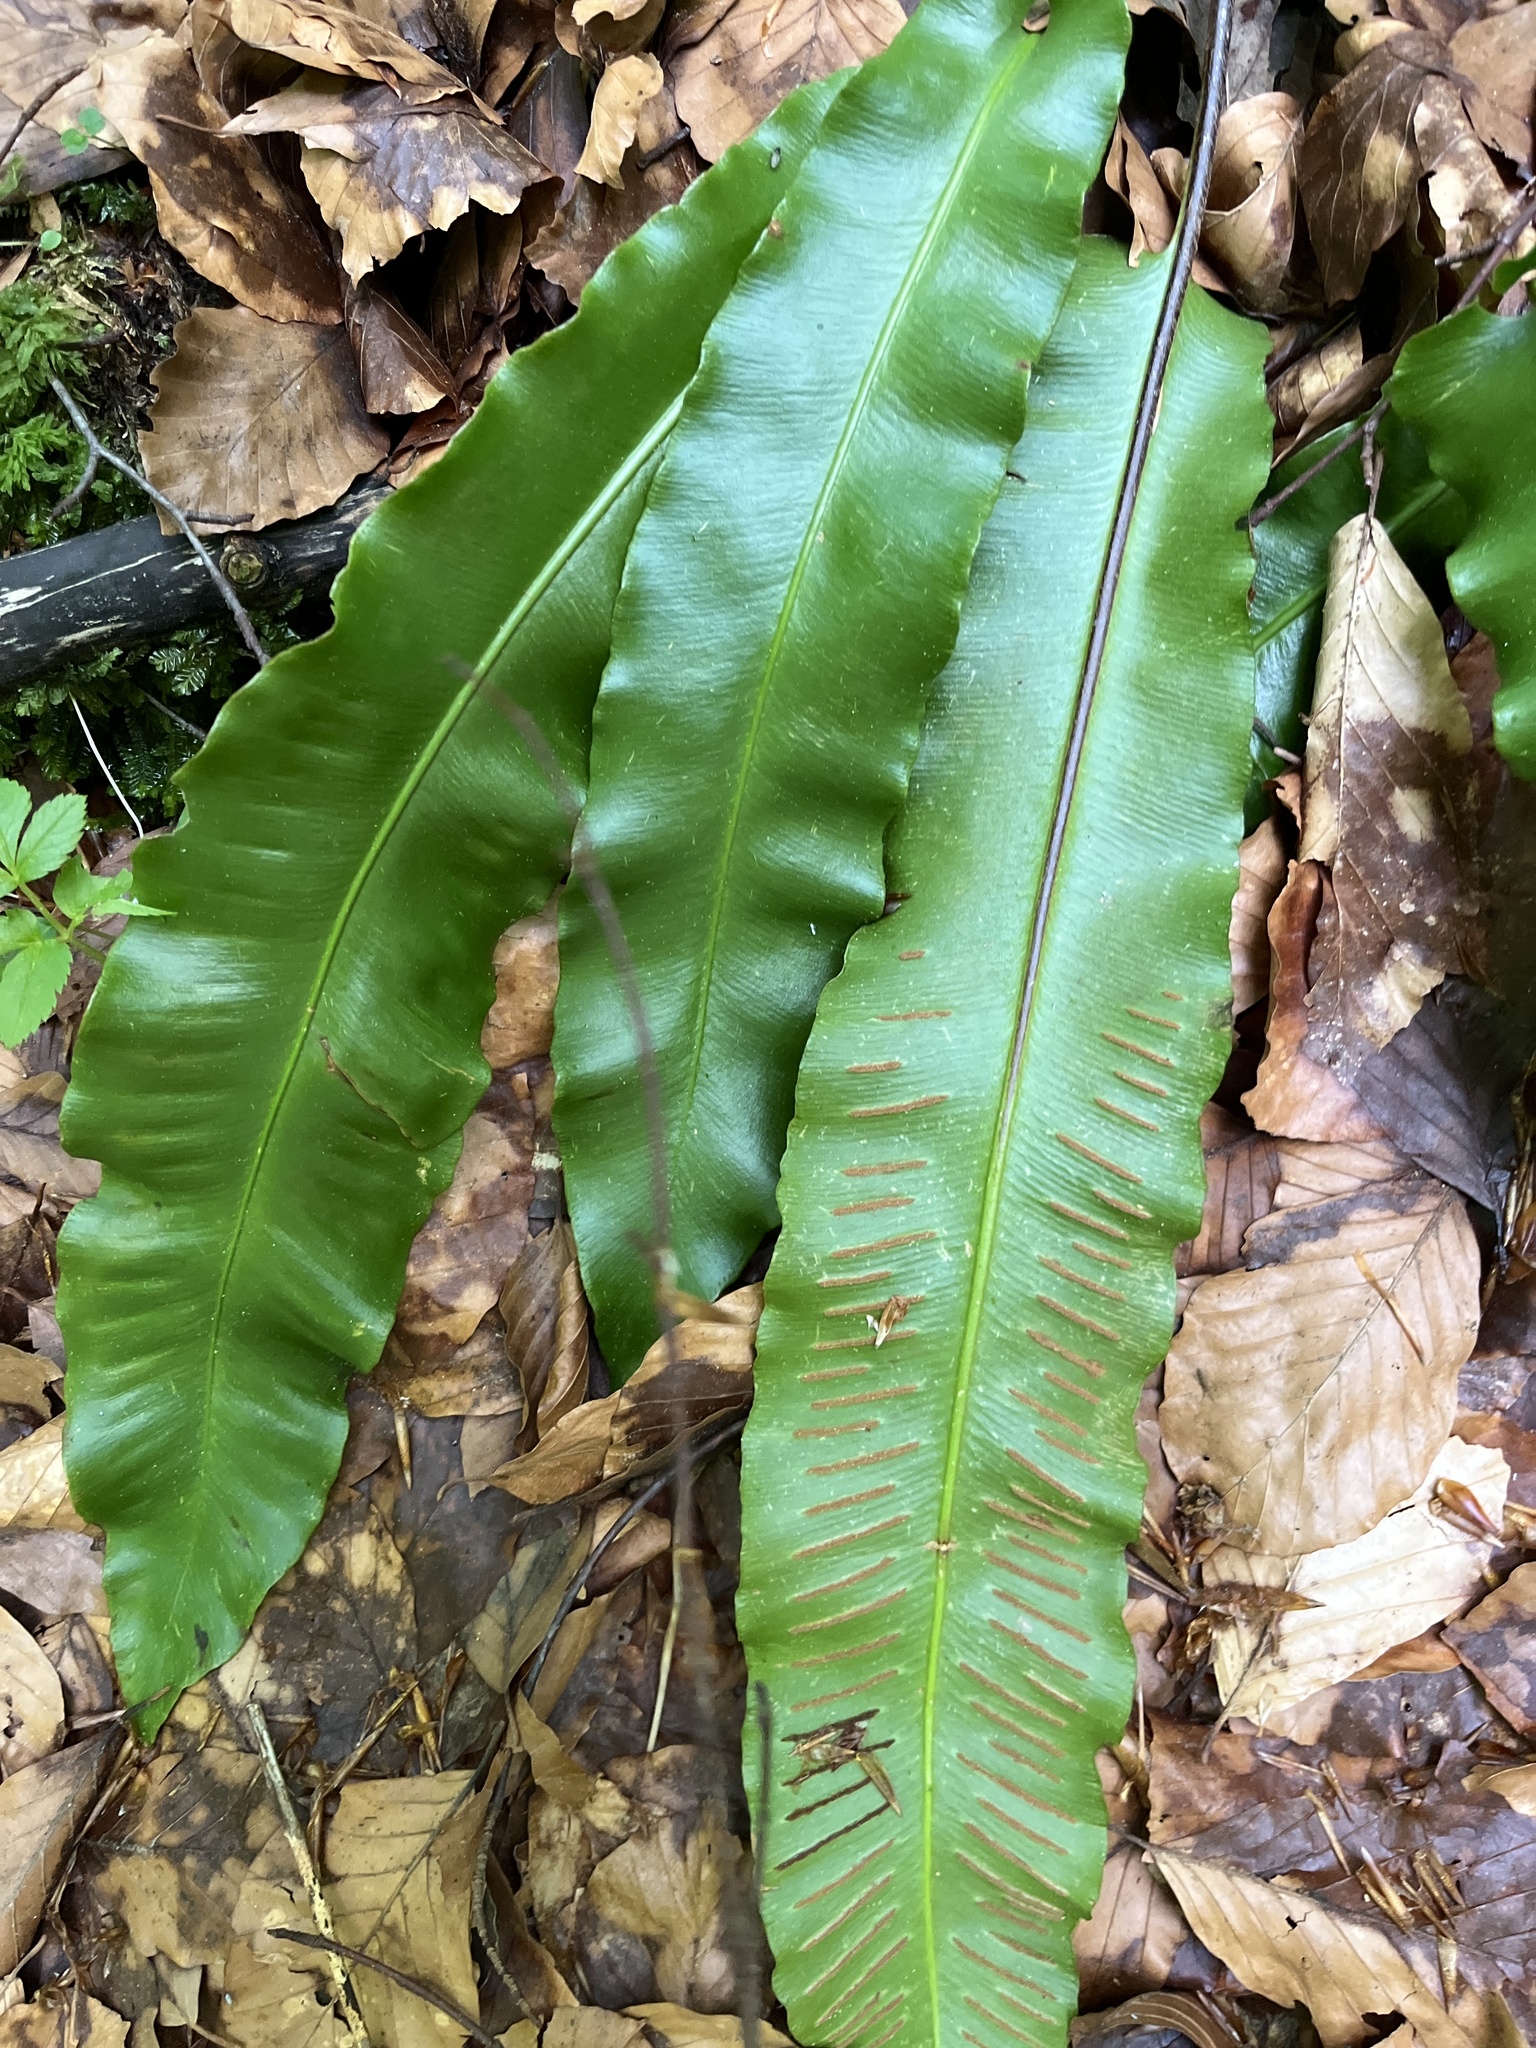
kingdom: Plantae
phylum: Tracheophyta
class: Polypodiopsida
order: Polypodiales
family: Aspleniaceae
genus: Asplenium
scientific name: Asplenium scolopendrium
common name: Hart's-tongue fern
